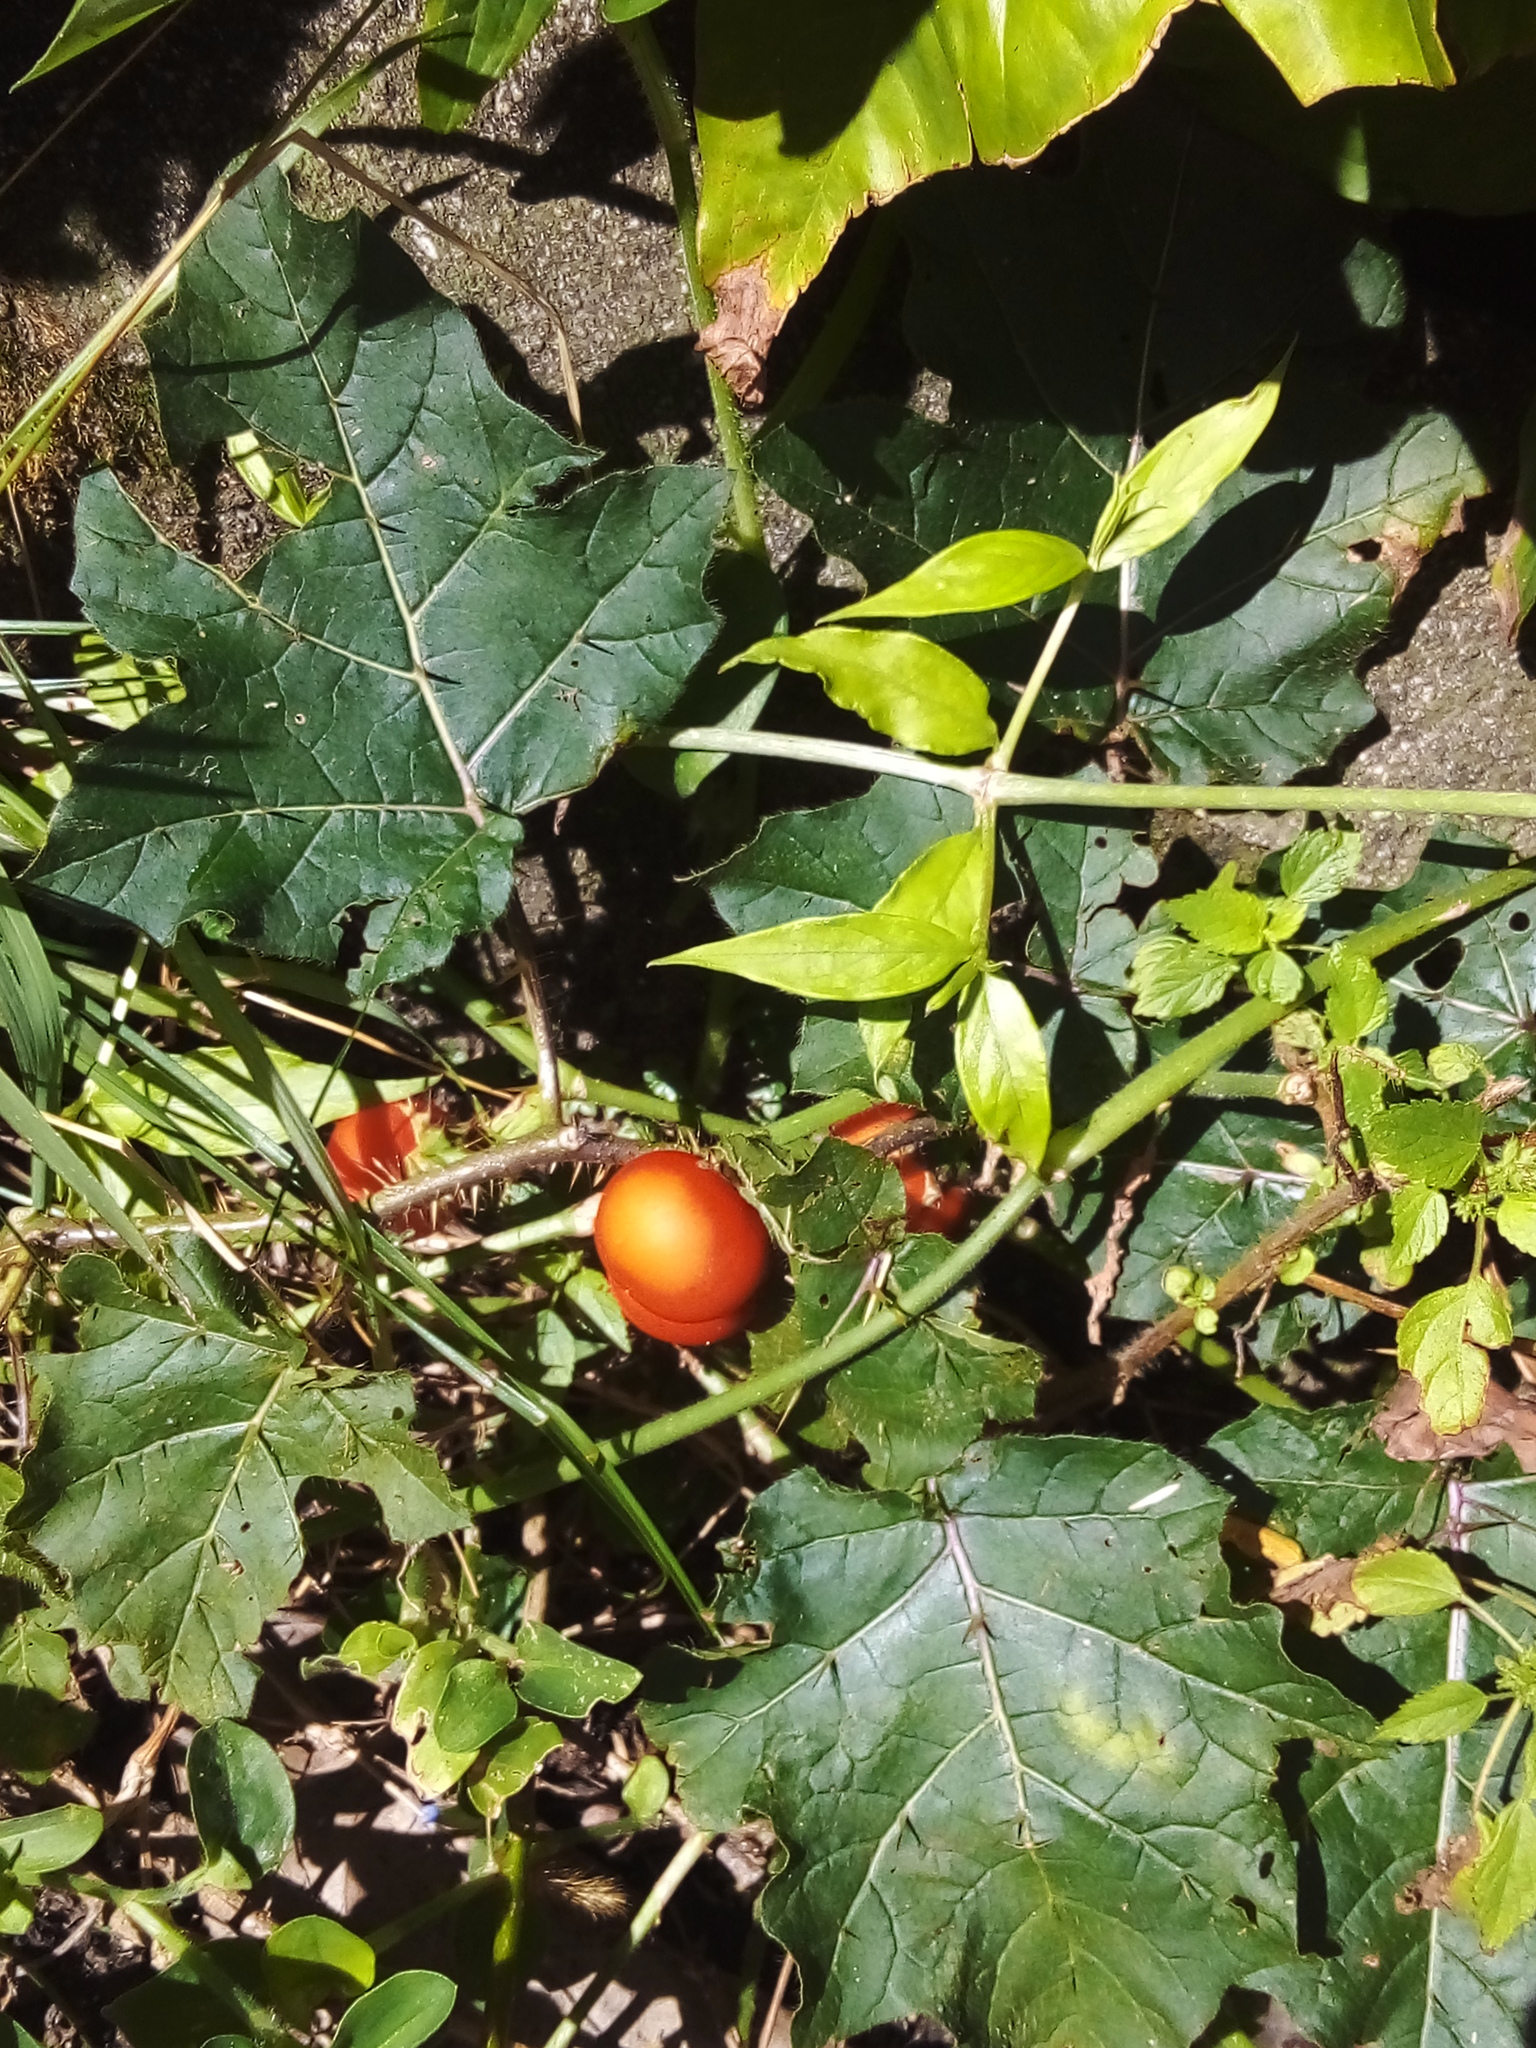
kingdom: Plantae
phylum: Tracheophyta
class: Magnoliopsida
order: Solanales
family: Solanaceae
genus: Solanum
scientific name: Solanum capsicoides
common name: Cockroach berry
